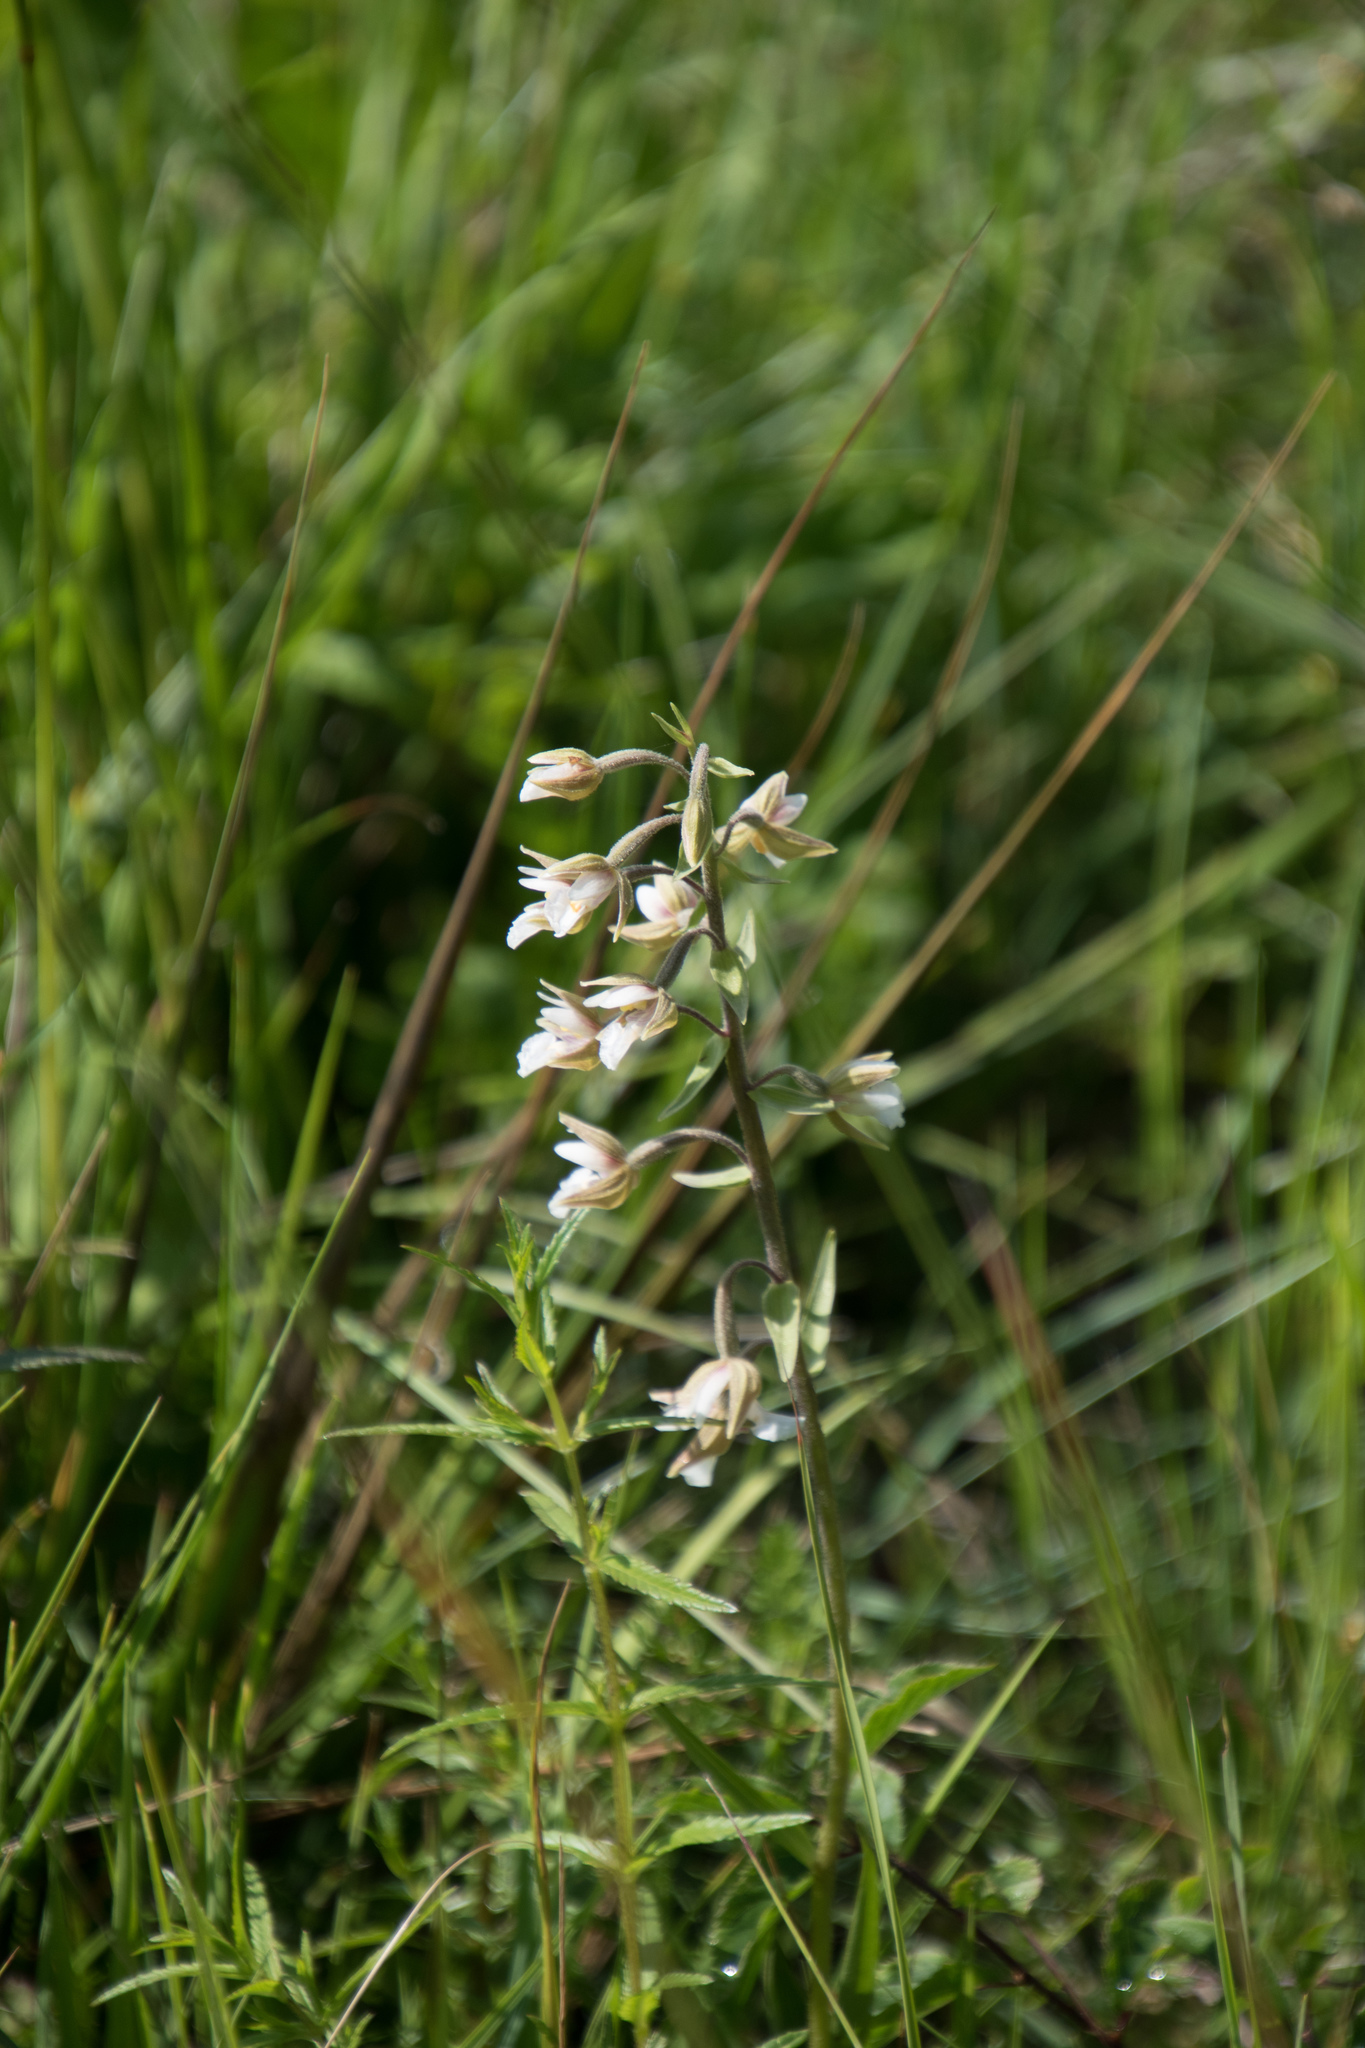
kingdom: Plantae
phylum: Tracheophyta
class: Liliopsida
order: Asparagales
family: Orchidaceae
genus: Epipactis
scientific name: Epipactis palustris
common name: Marsh helleborine
